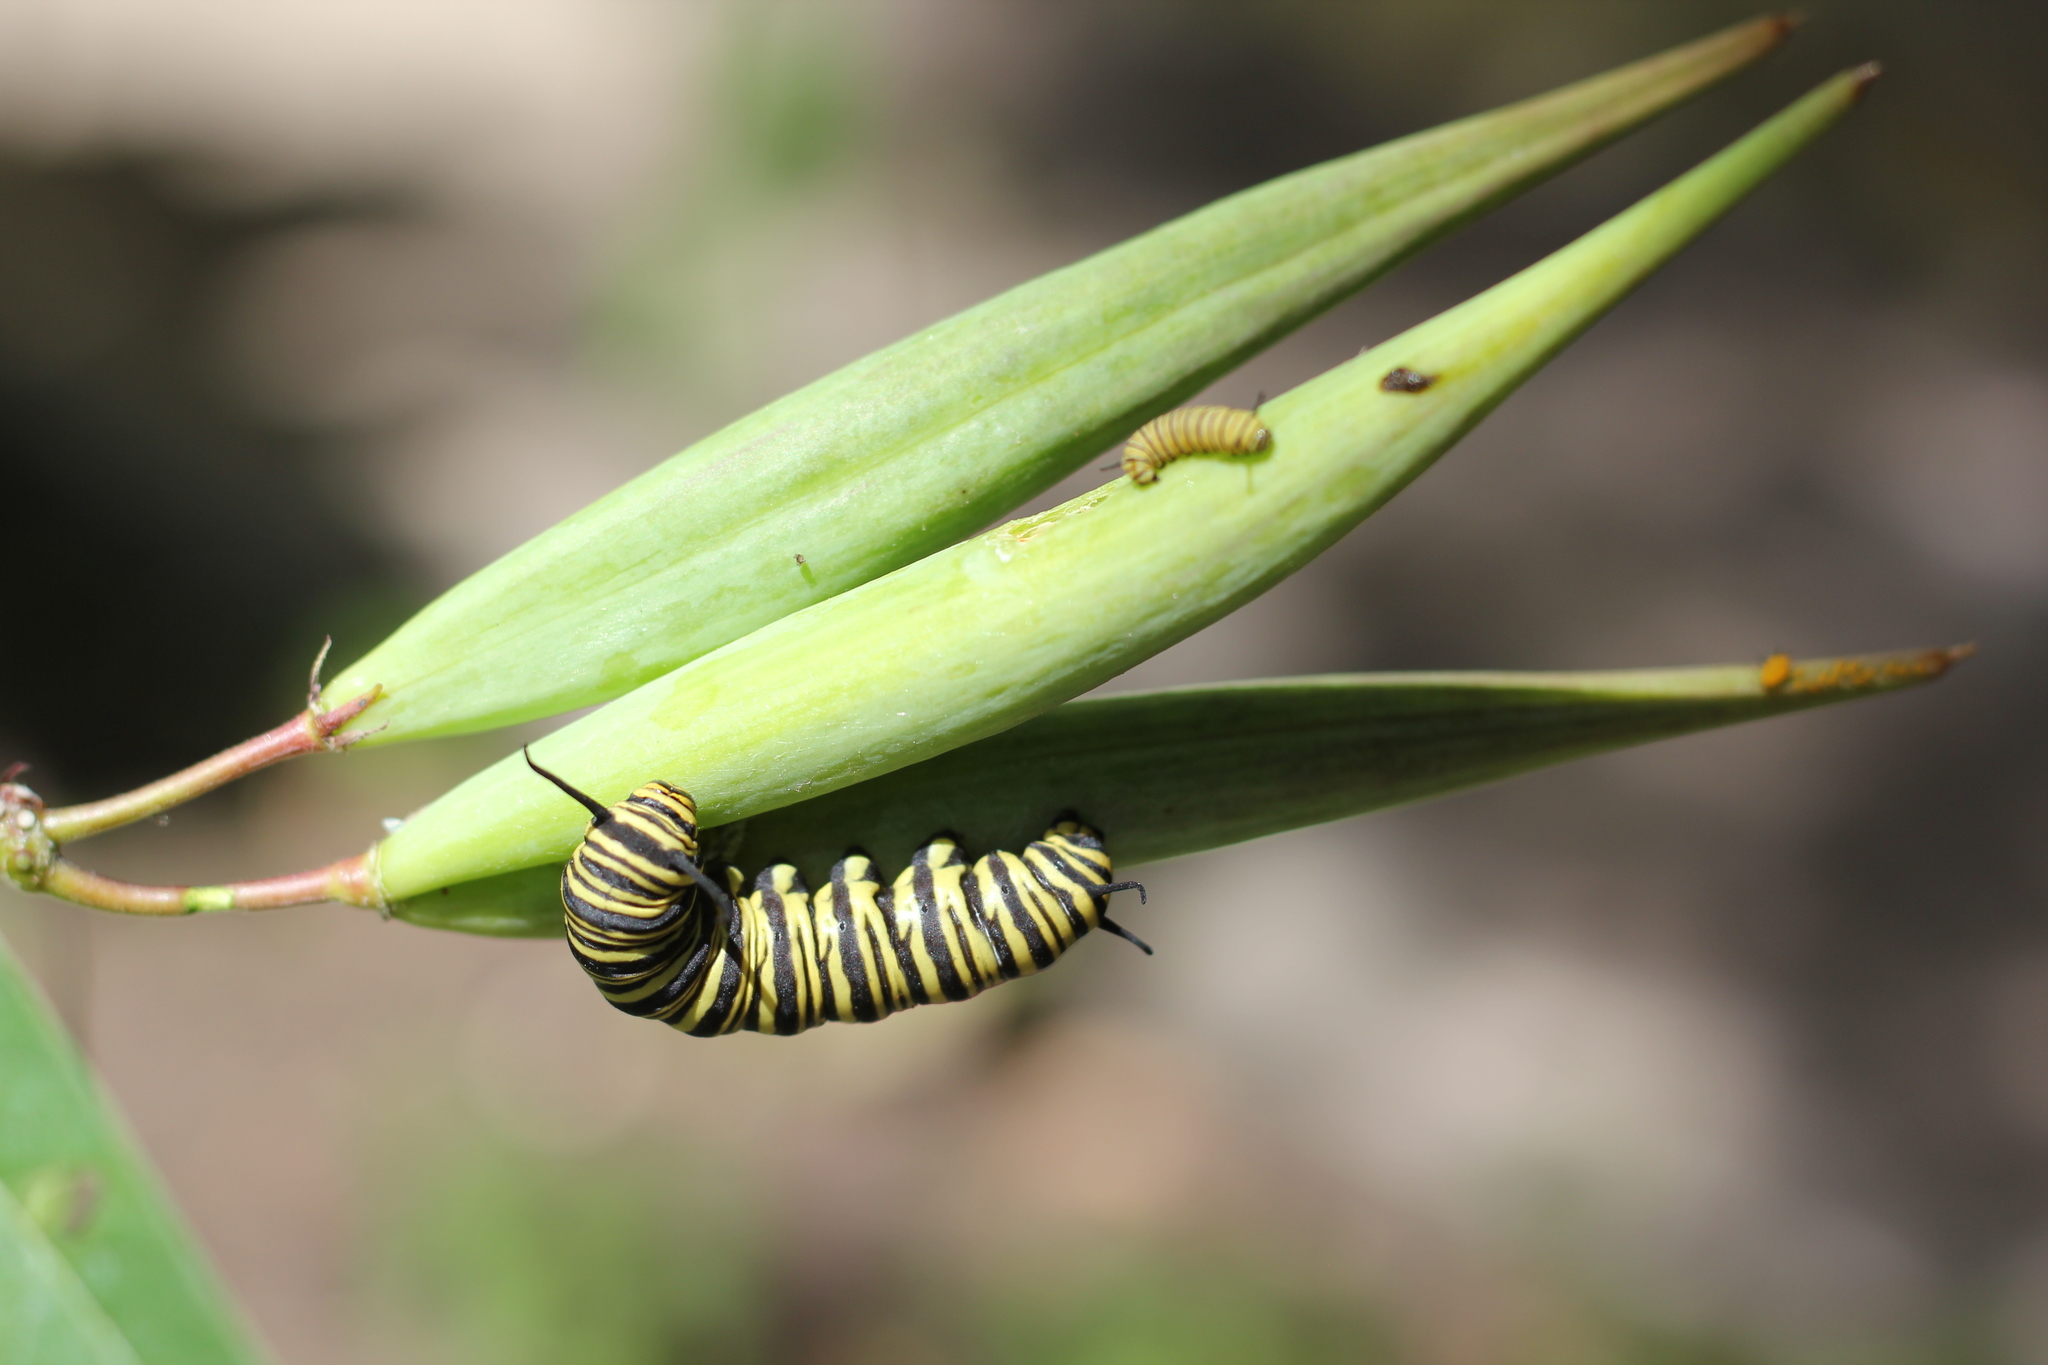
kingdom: Animalia
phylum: Arthropoda
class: Insecta
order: Lepidoptera
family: Nymphalidae
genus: Danaus
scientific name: Danaus erippus
